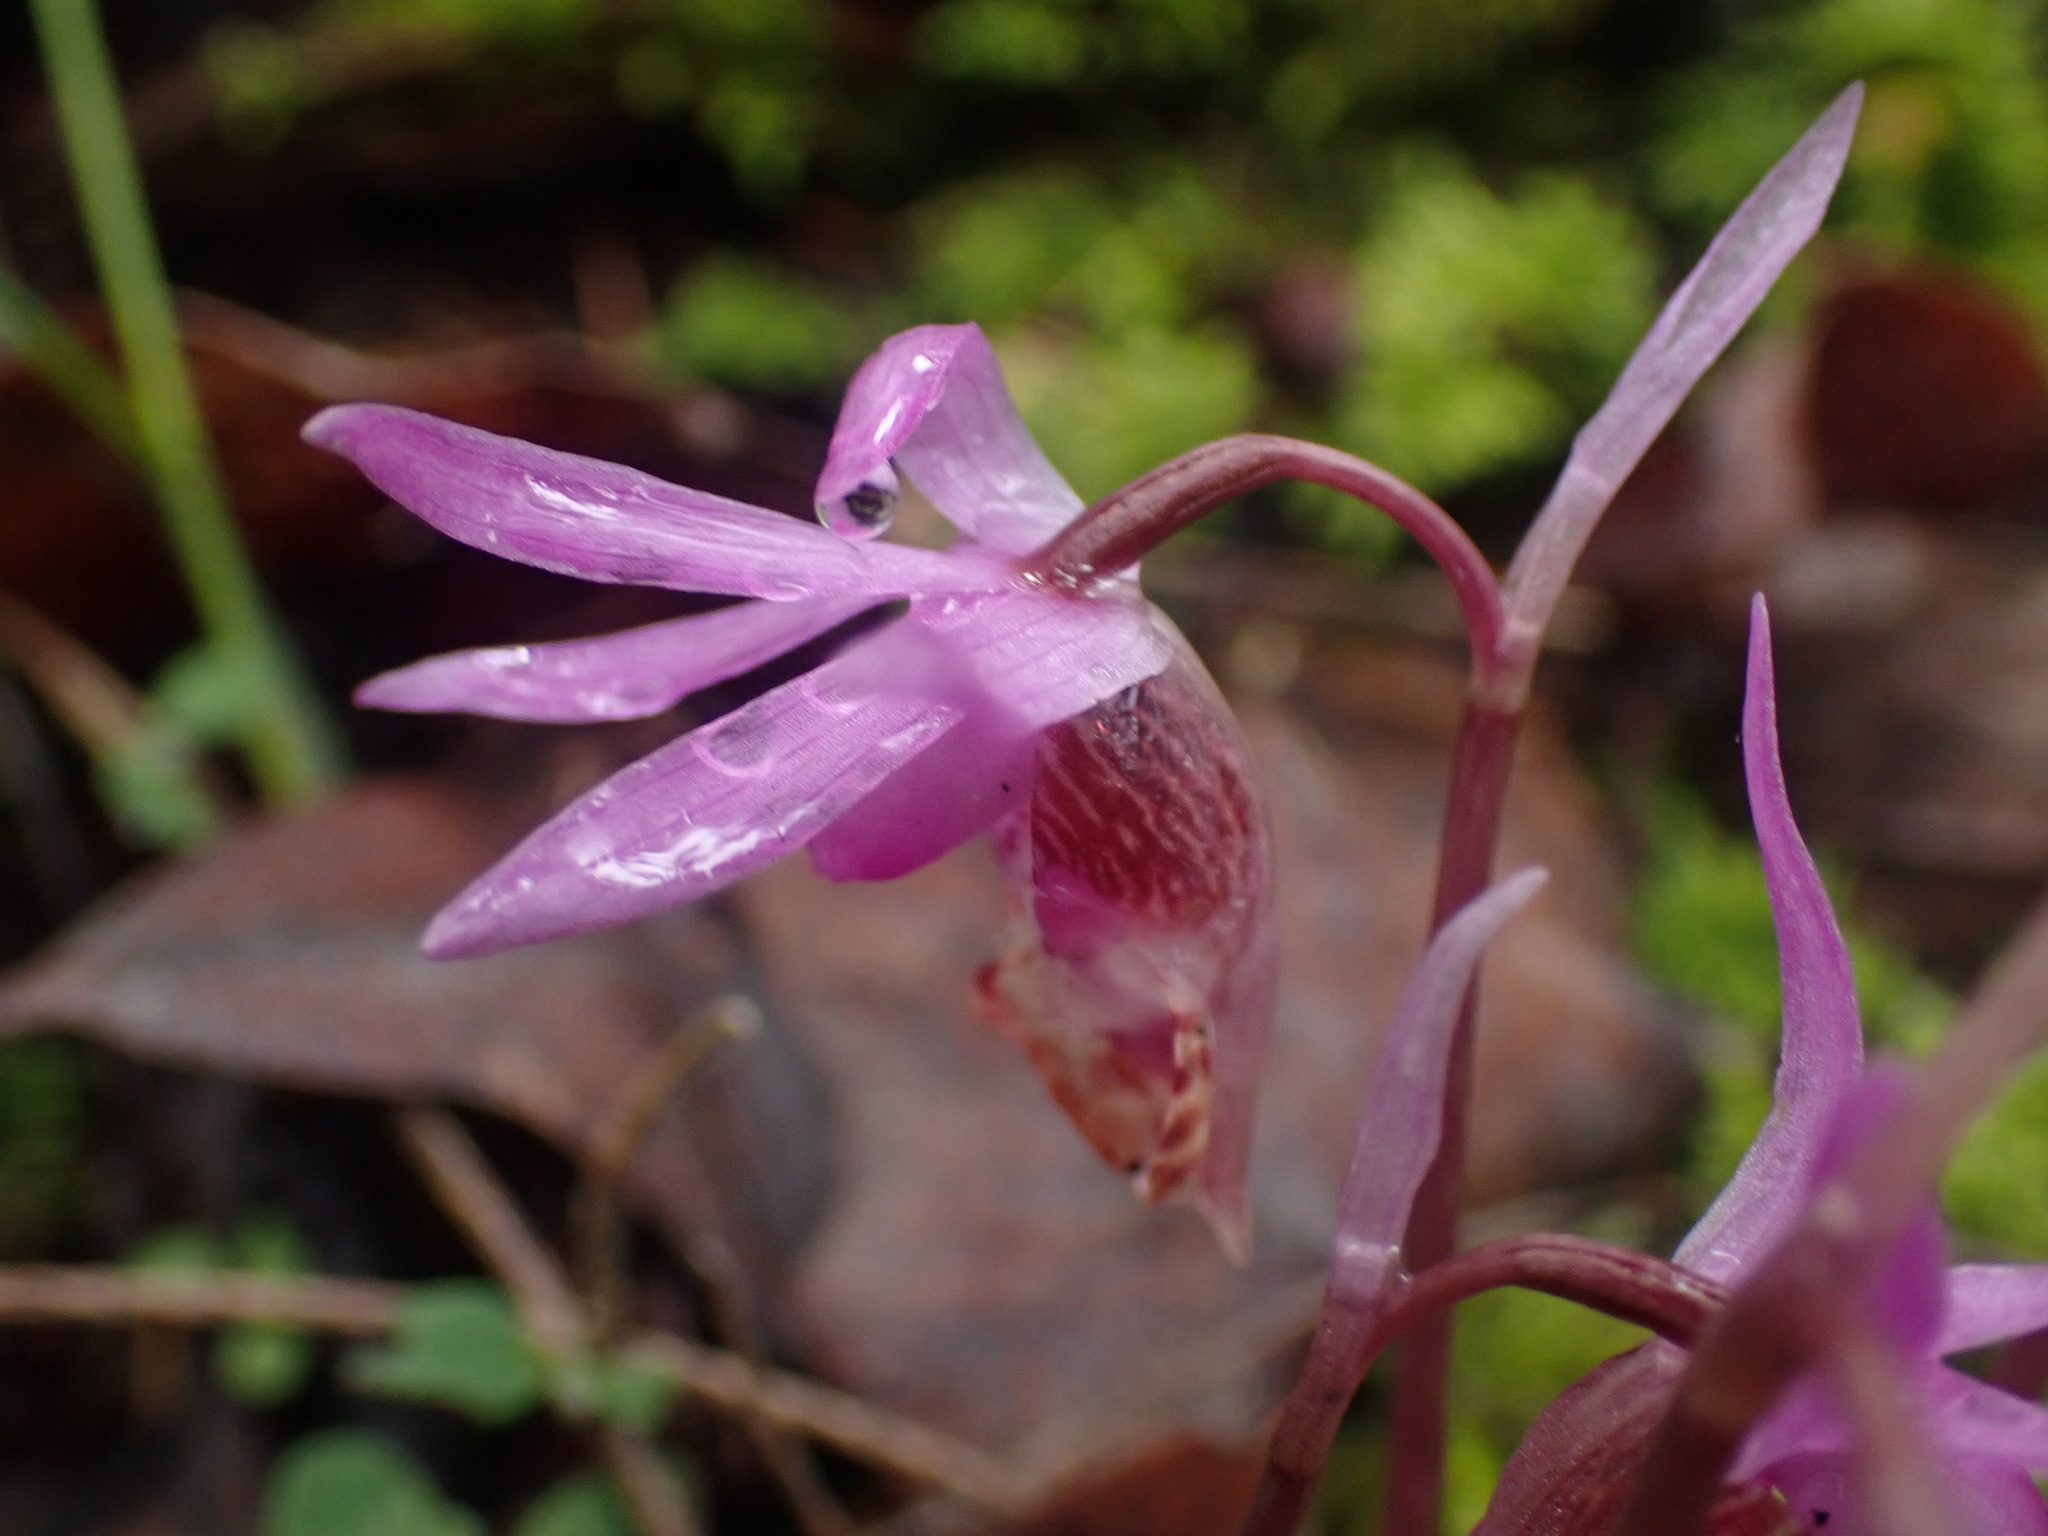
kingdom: Plantae
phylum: Tracheophyta
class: Liliopsida
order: Asparagales
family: Orchidaceae
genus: Calypso
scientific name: Calypso bulbosa
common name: Calypso
